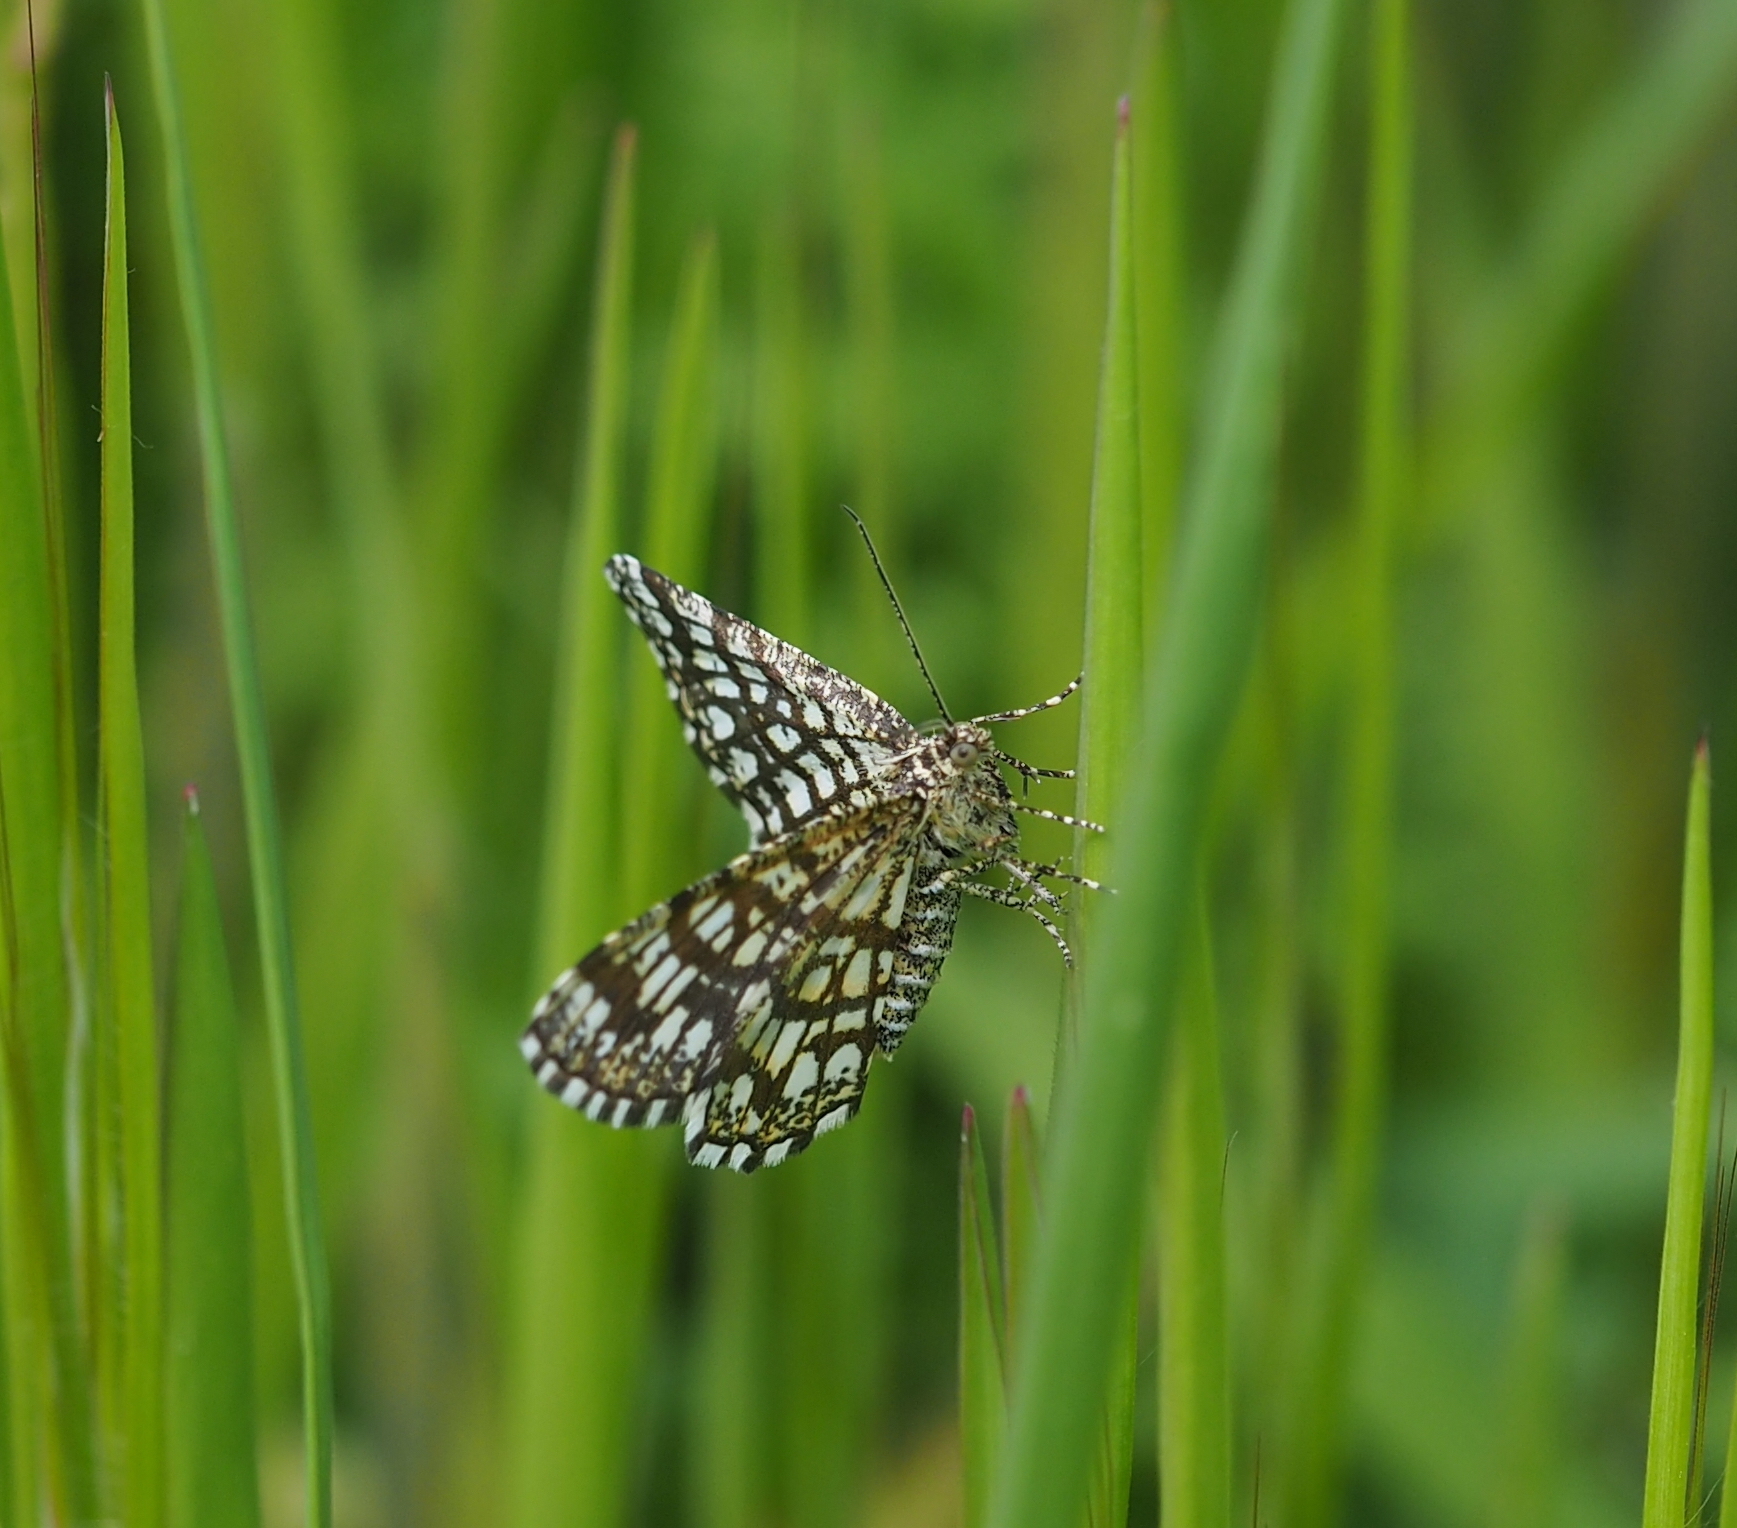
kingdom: Animalia
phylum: Arthropoda
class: Insecta
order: Lepidoptera
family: Geometridae
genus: Chiasmia
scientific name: Chiasmia clathrata
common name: Latticed heath
